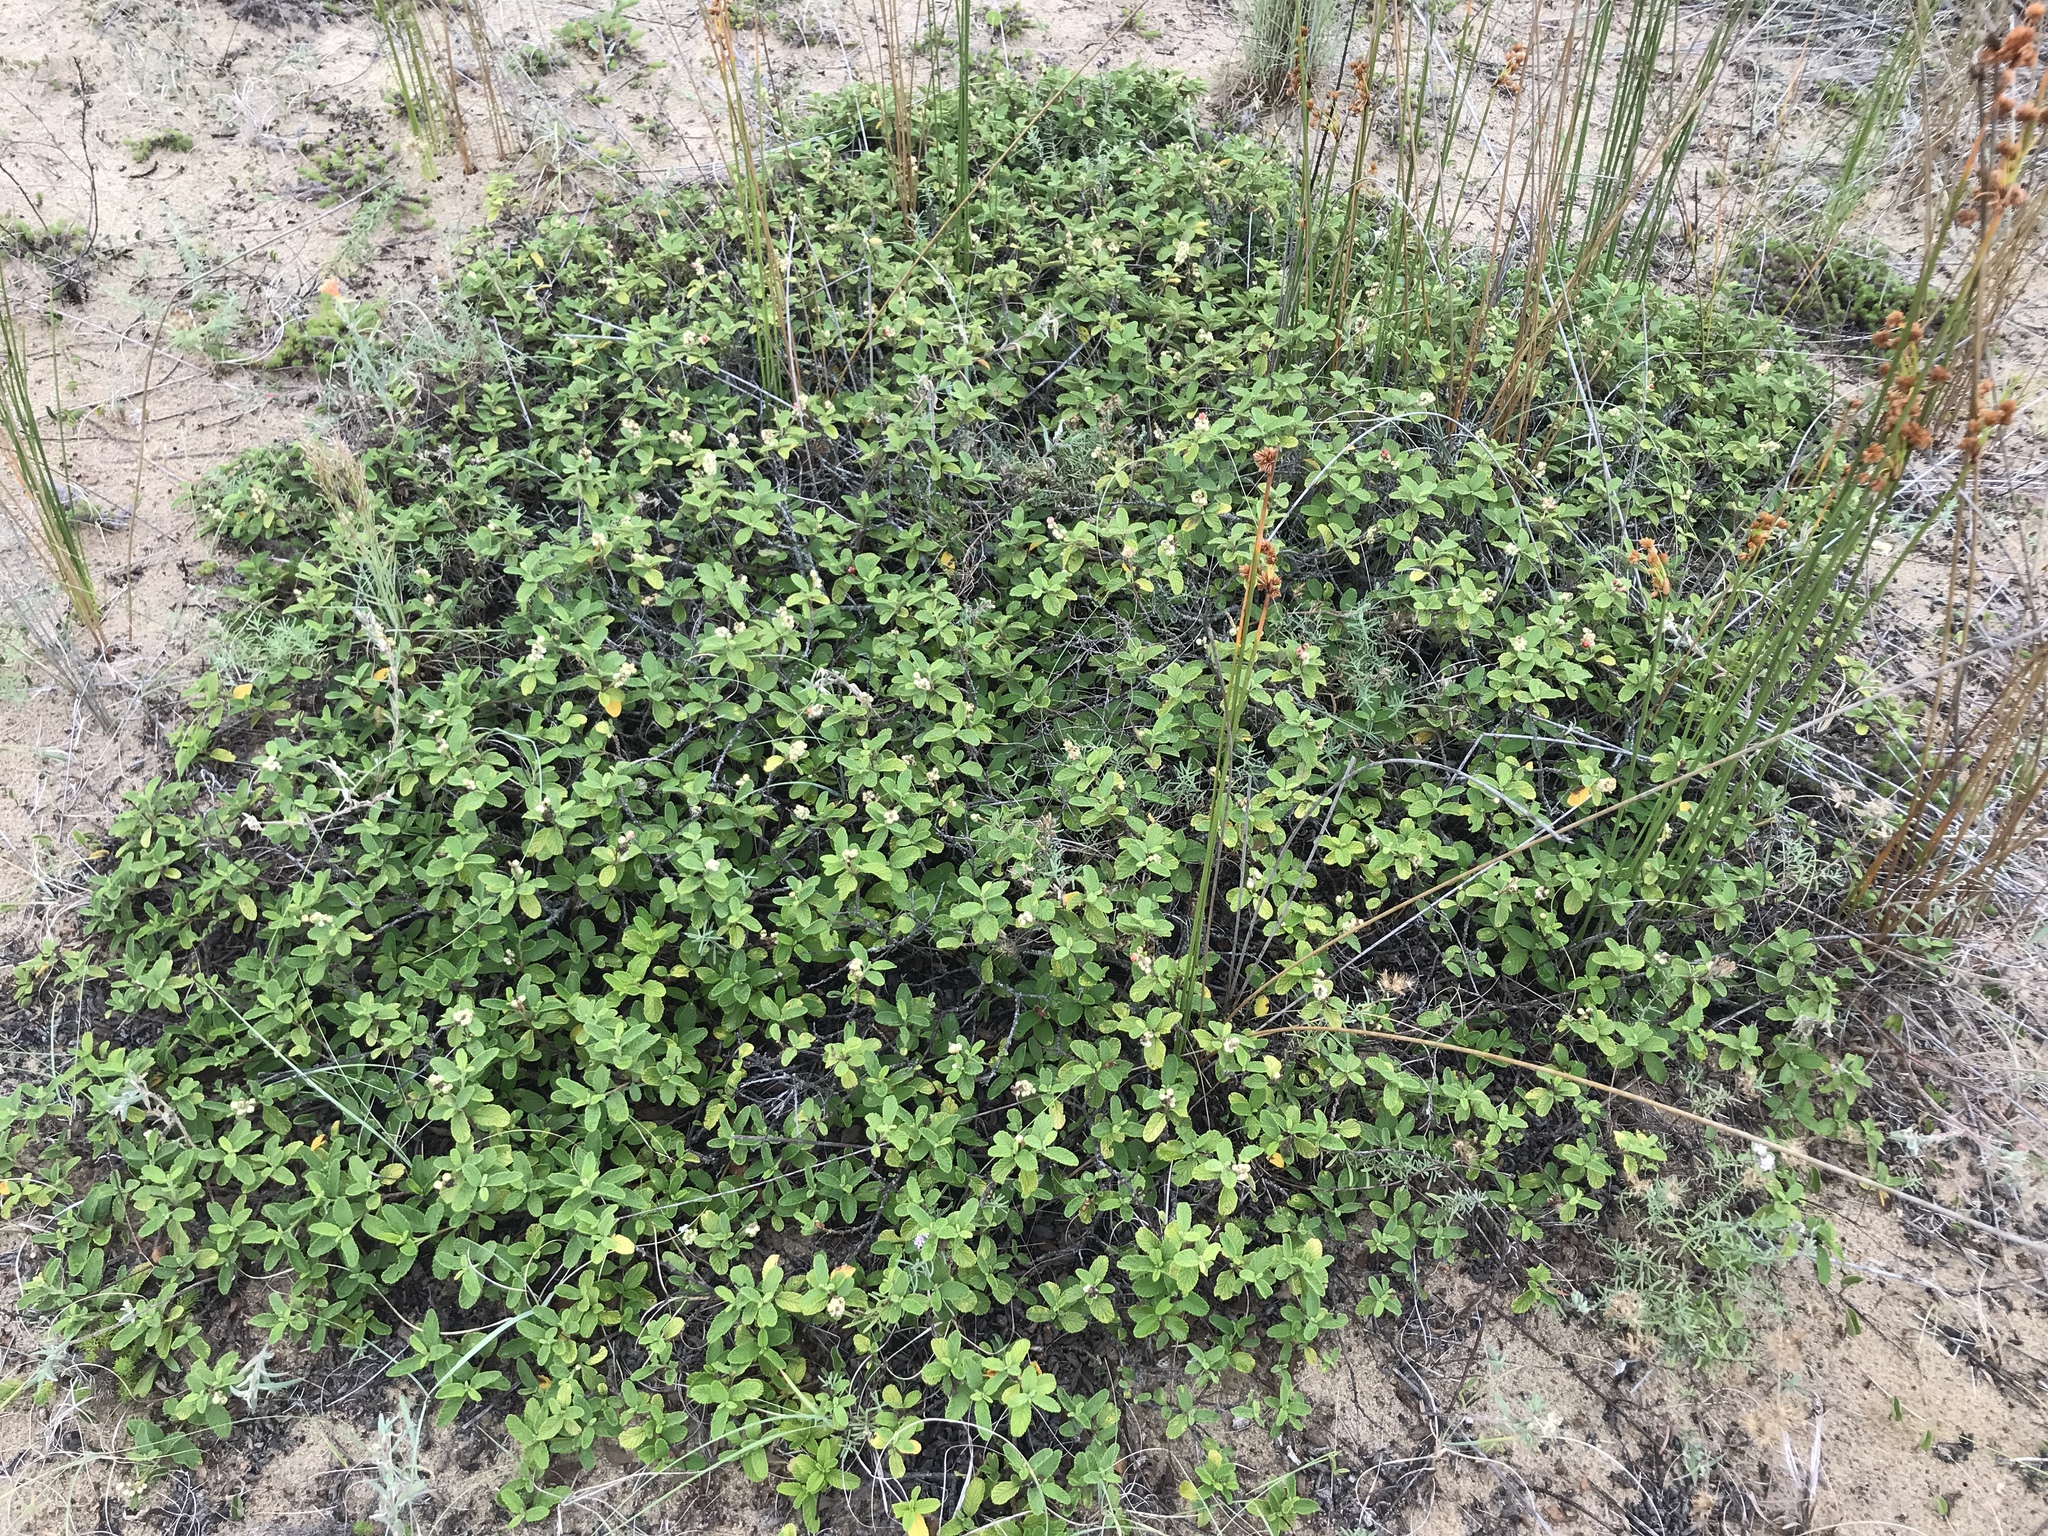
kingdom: Plantae
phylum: Tracheophyta
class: Magnoliopsida
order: Boraginales
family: Cordiaceae
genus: Varronia
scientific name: Varronia curassavica
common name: Black sage
